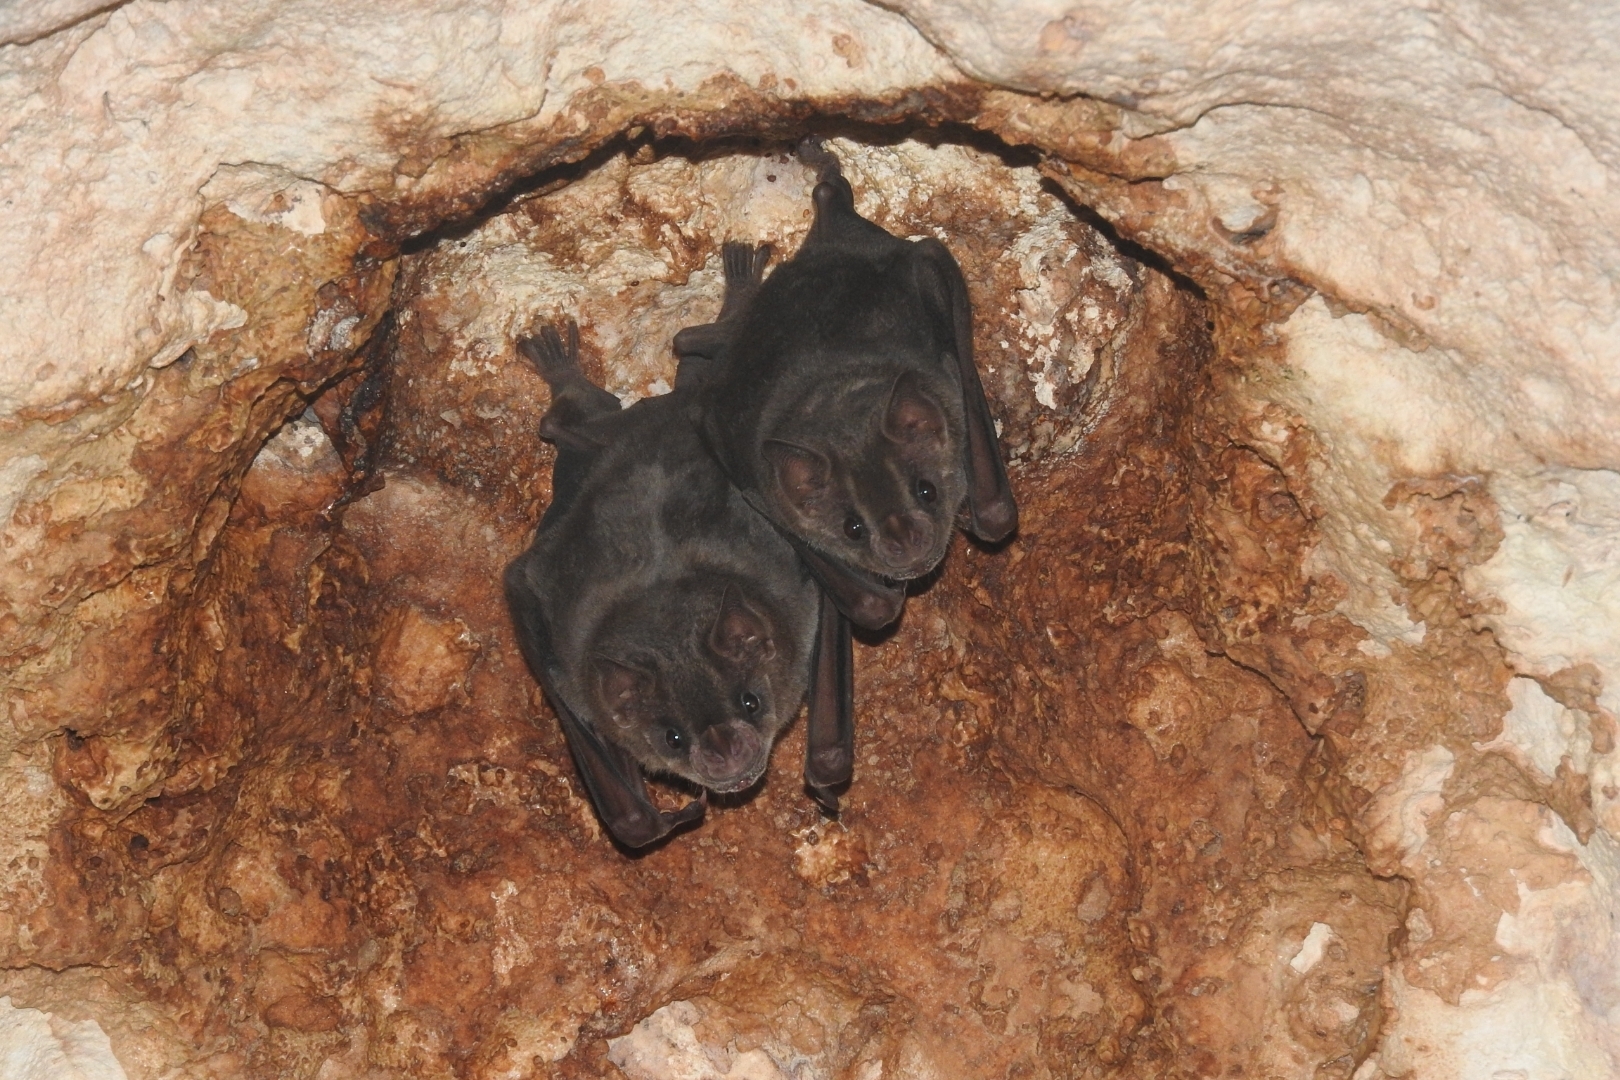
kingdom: Animalia
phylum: Chordata
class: Mammalia
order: Chiroptera
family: Phyllostomidae
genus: Artibeus
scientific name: Artibeus jamaicensis
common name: Jamaican fruit-eating bat
